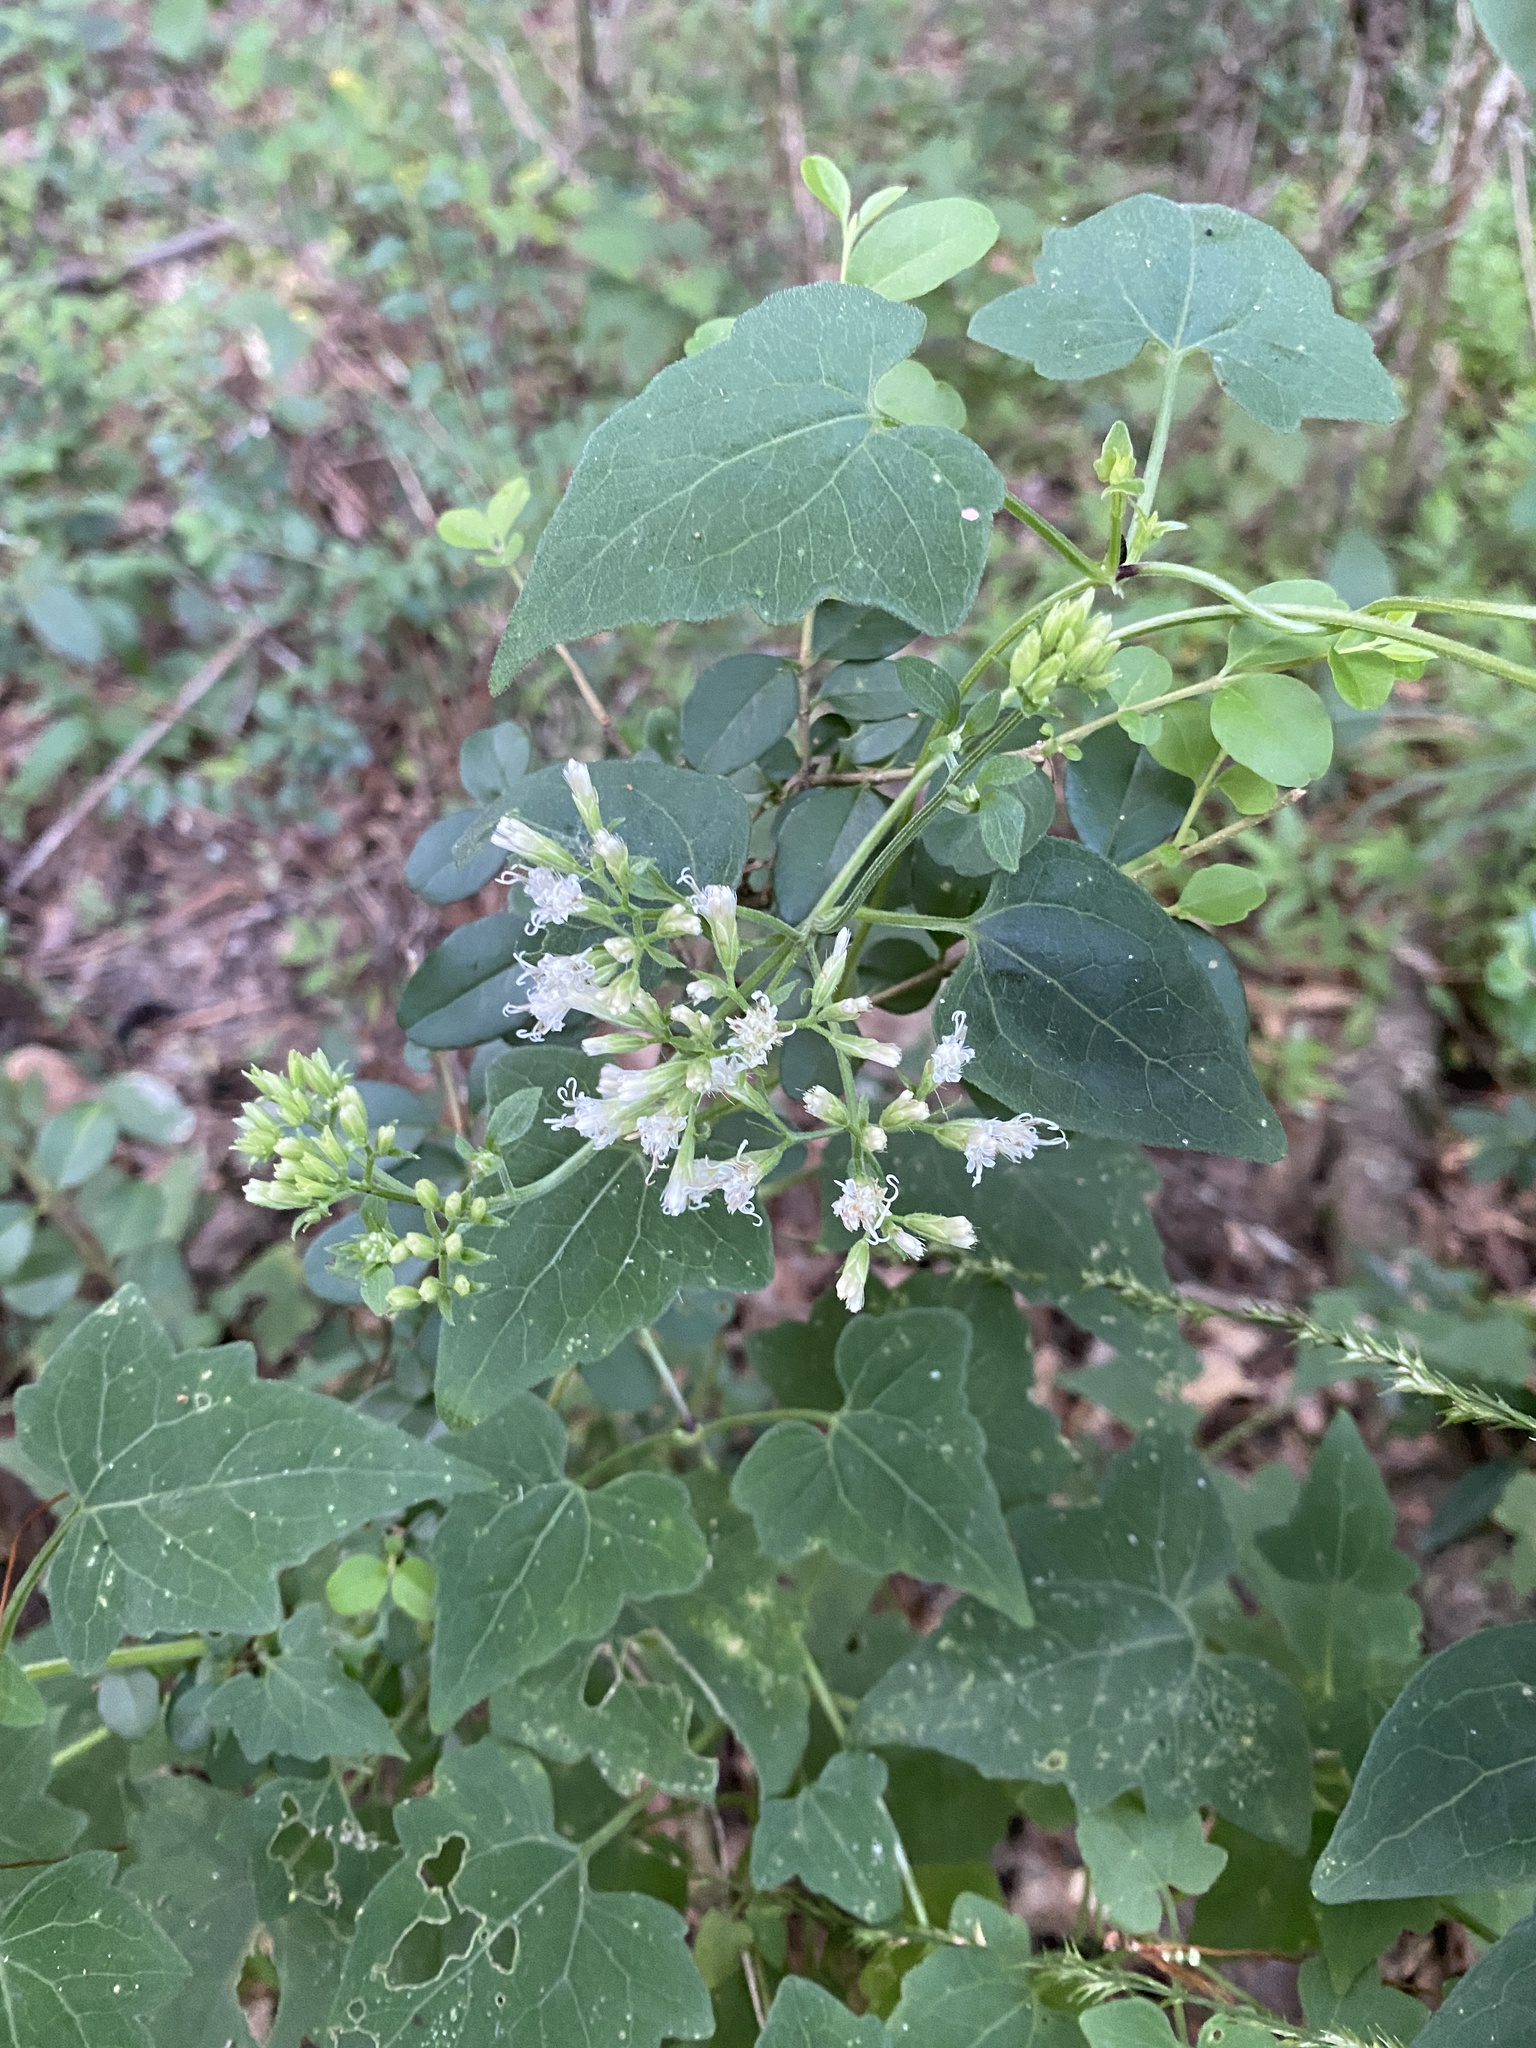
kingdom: Plantae
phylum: Tracheophyta
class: Magnoliopsida
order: Asterales
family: Asteraceae
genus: Mikania
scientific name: Mikania cordifolia
